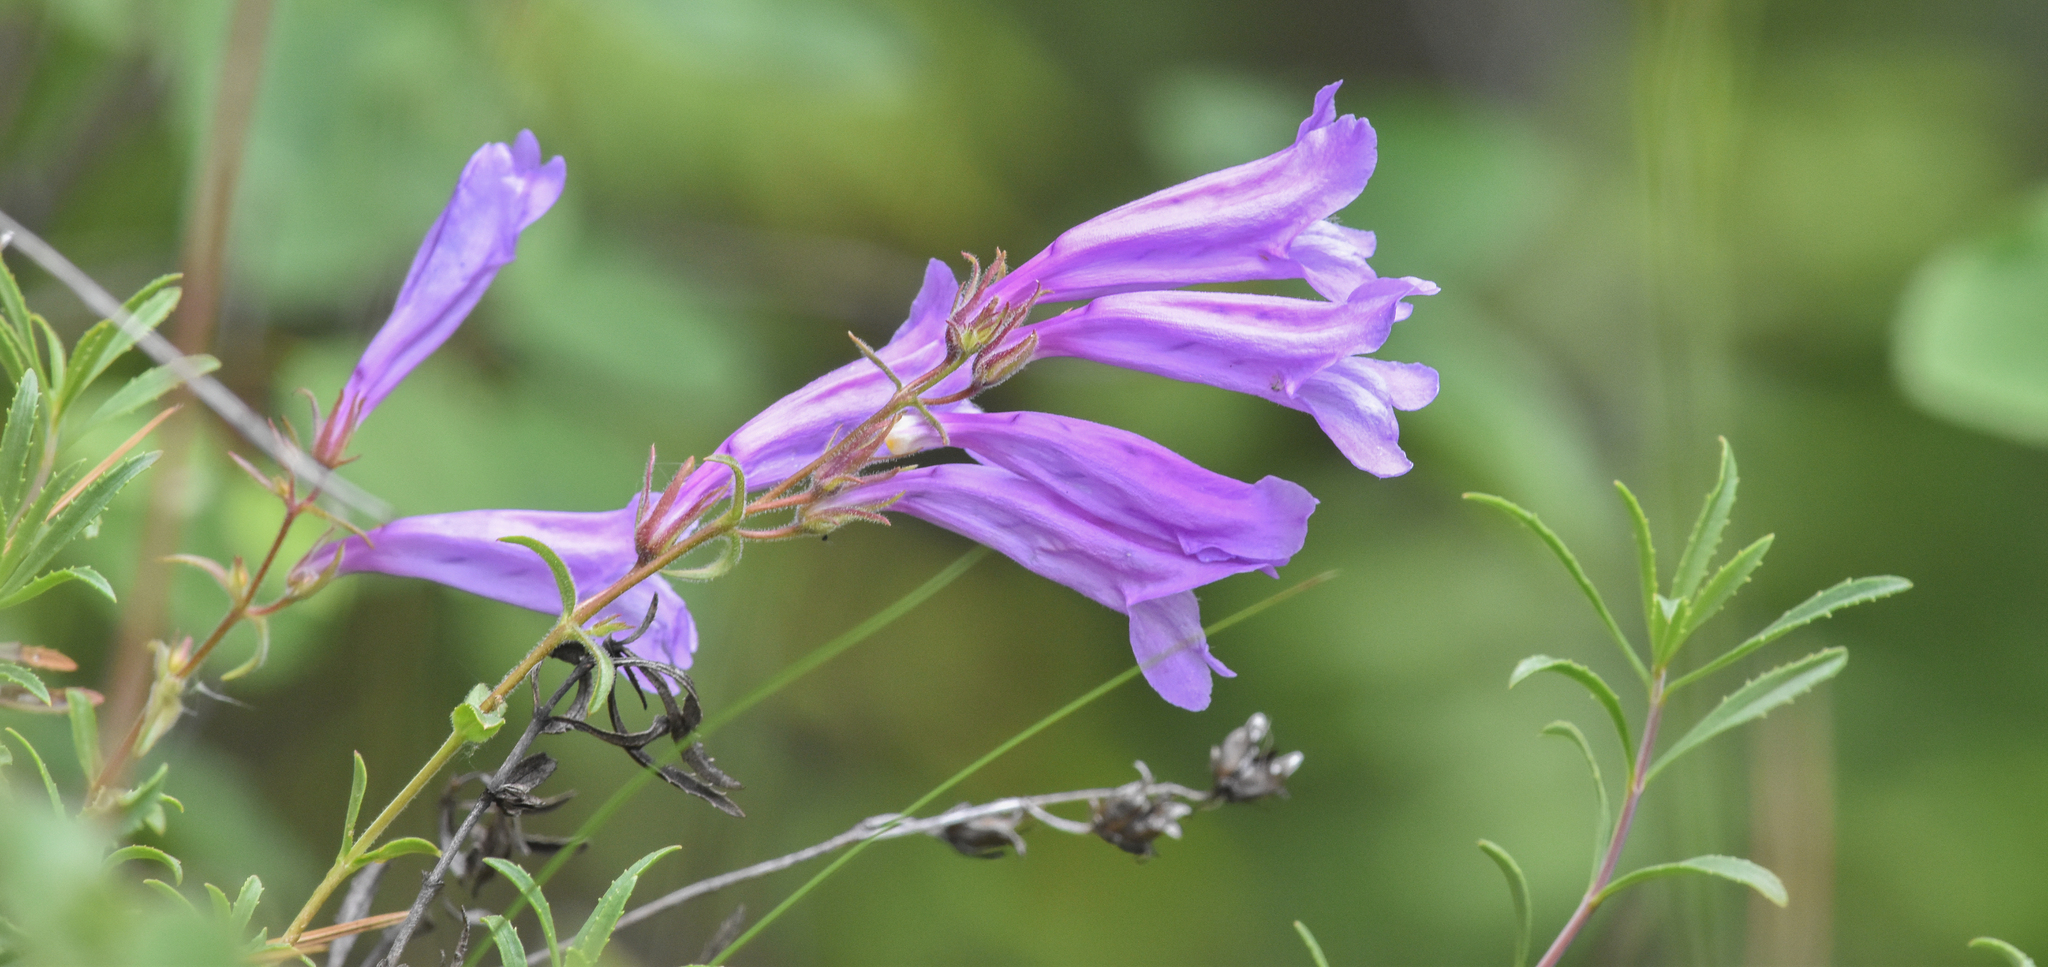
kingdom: Plantae
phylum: Tracheophyta
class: Magnoliopsida
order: Lamiales
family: Plantaginaceae
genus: Penstemon
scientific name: Penstemon fruticosus
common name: Bush penstemon
